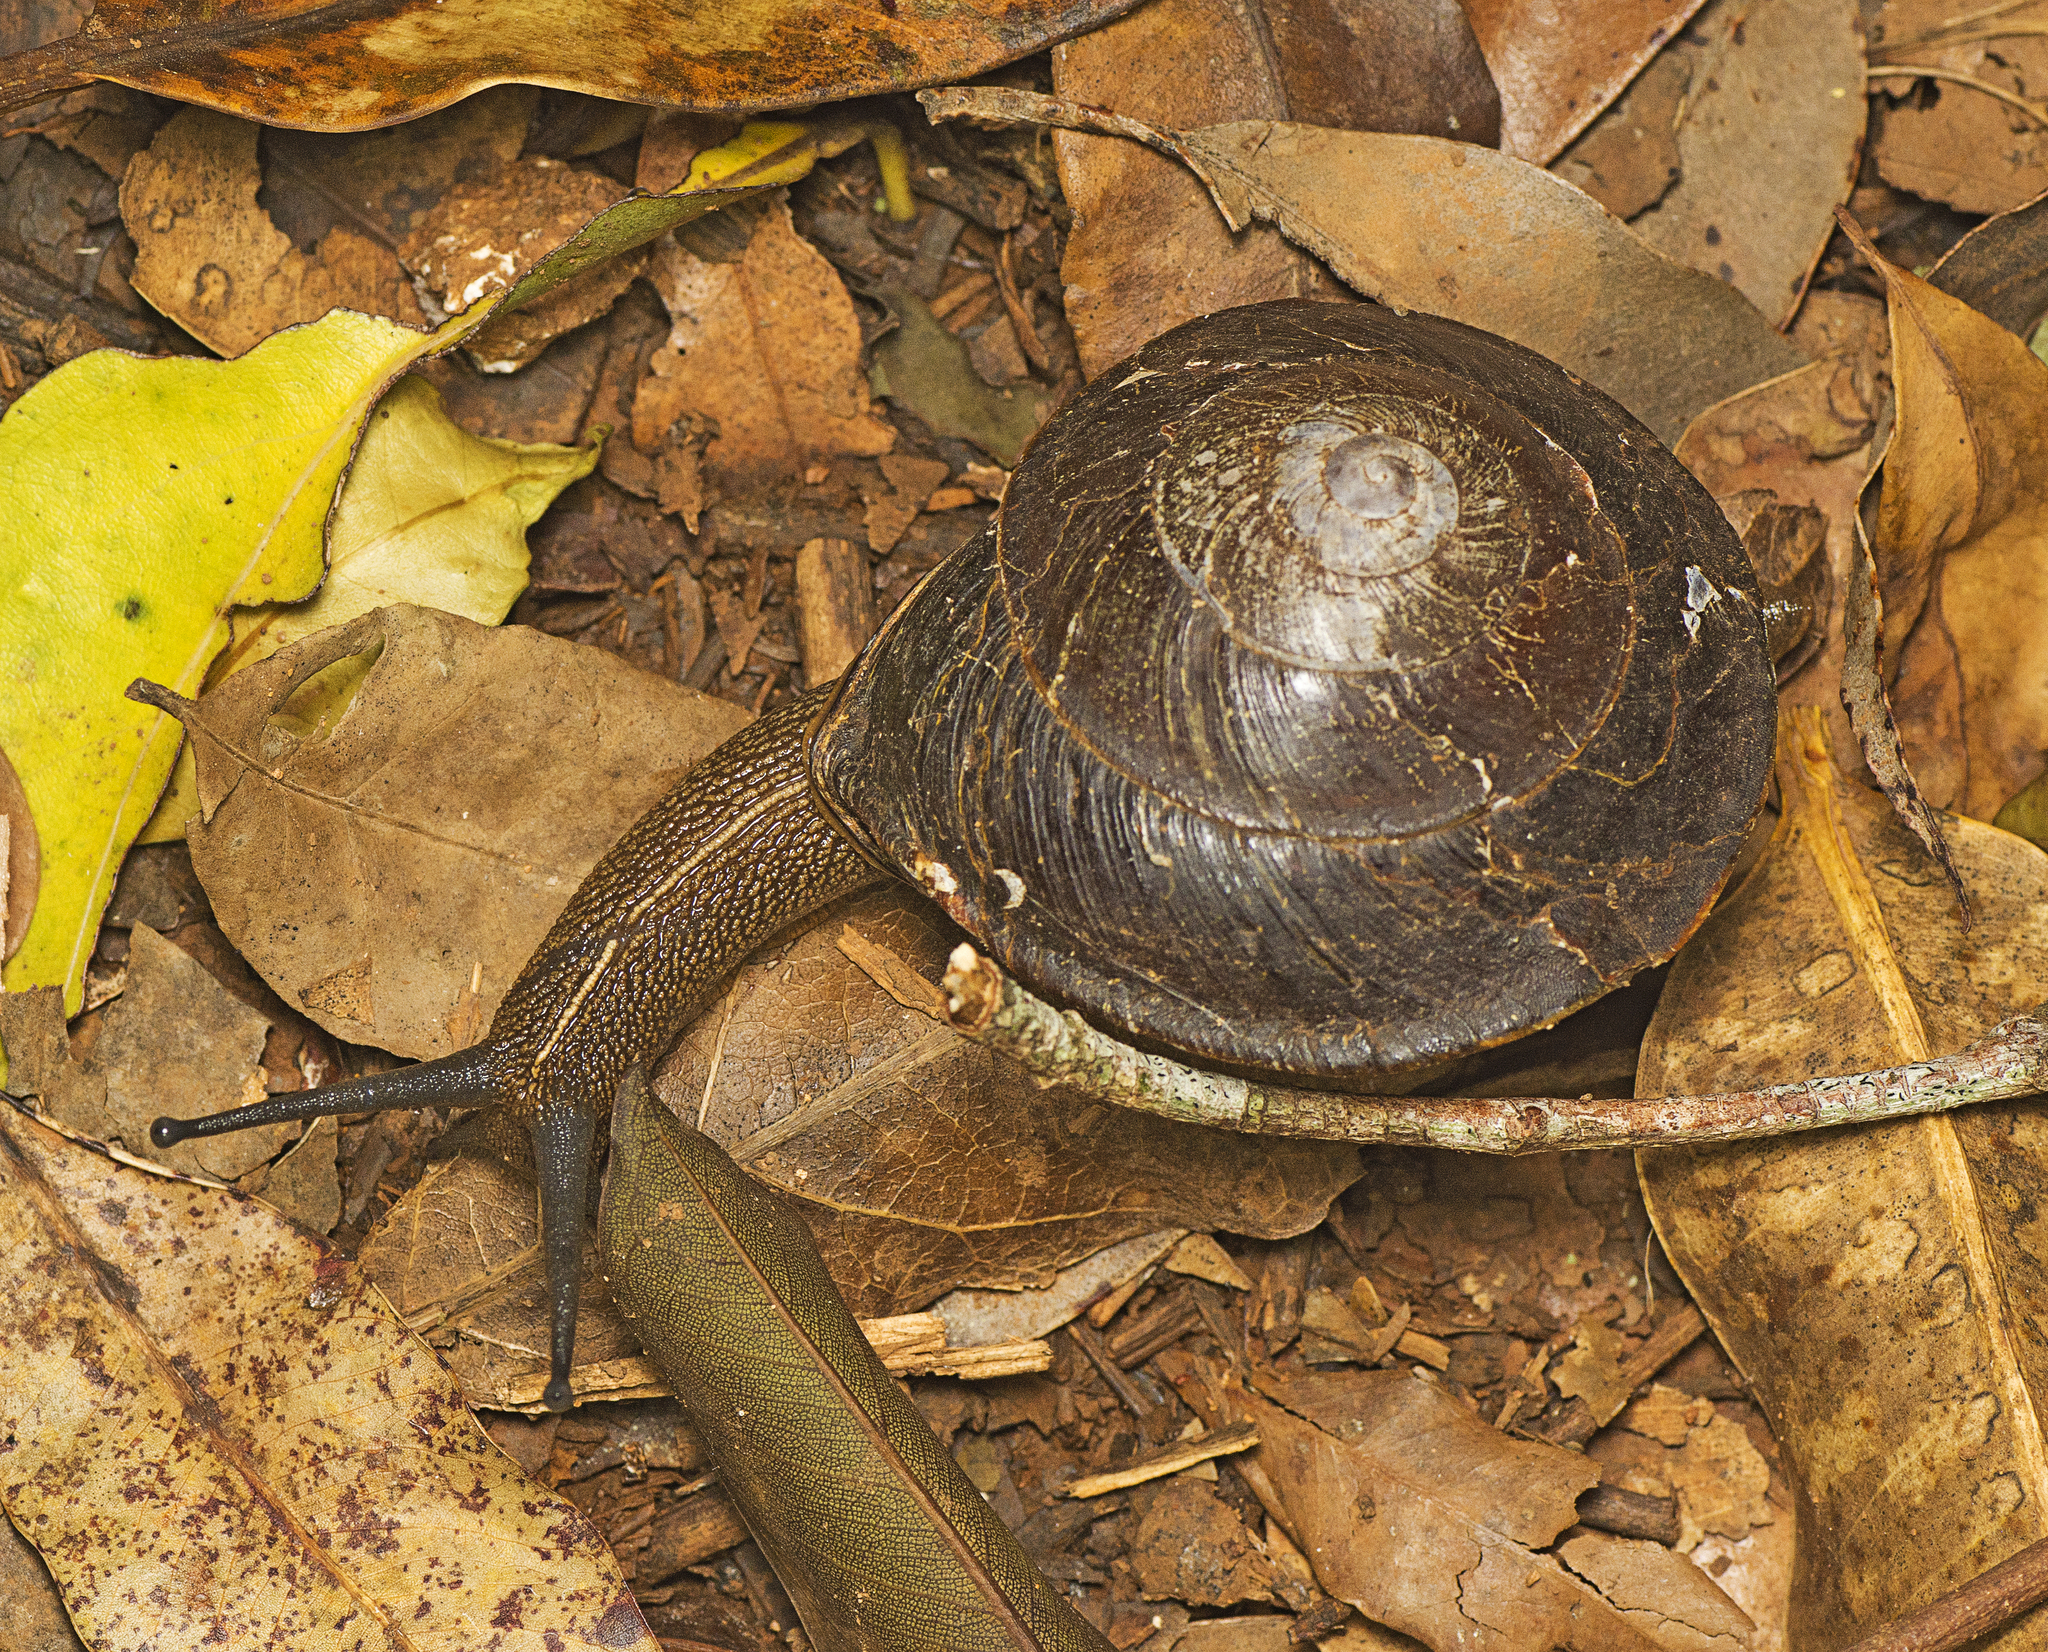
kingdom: Animalia
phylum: Mollusca
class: Gastropoda
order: Stylommatophora
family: Camaenidae
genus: Thersites
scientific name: Thersites richmondiana
